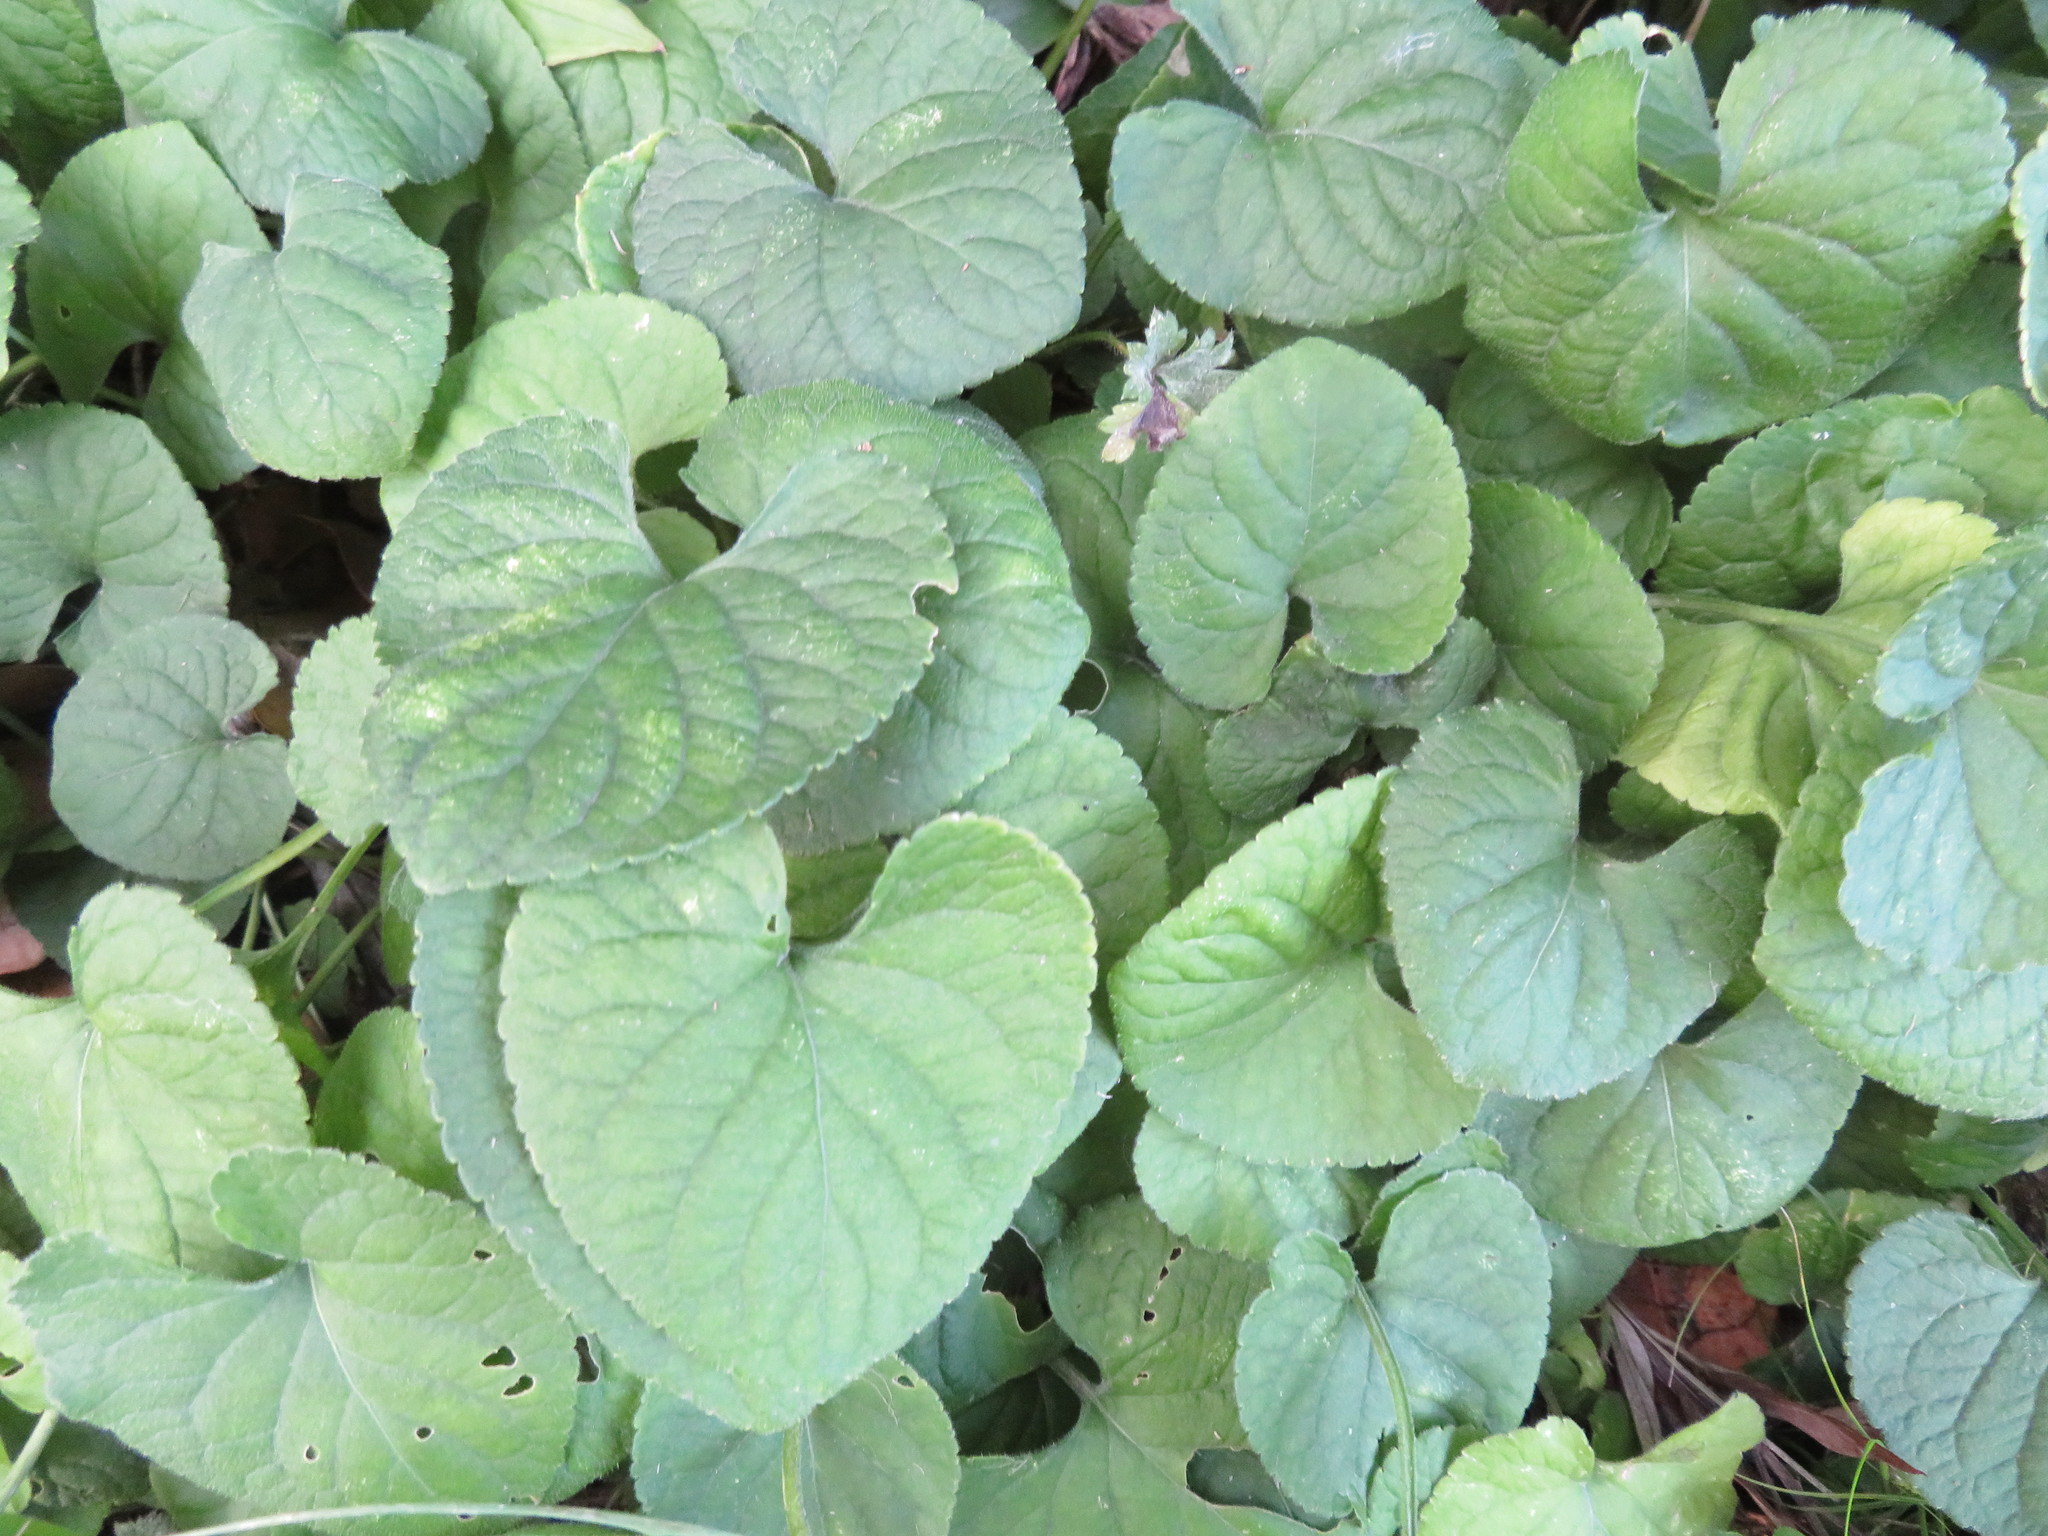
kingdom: Plantae
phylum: Tracheophyta
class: Magnoliopsida
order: Malpighiales
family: Violaceae
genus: Viola
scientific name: Viola odorata
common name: Sweet violet
